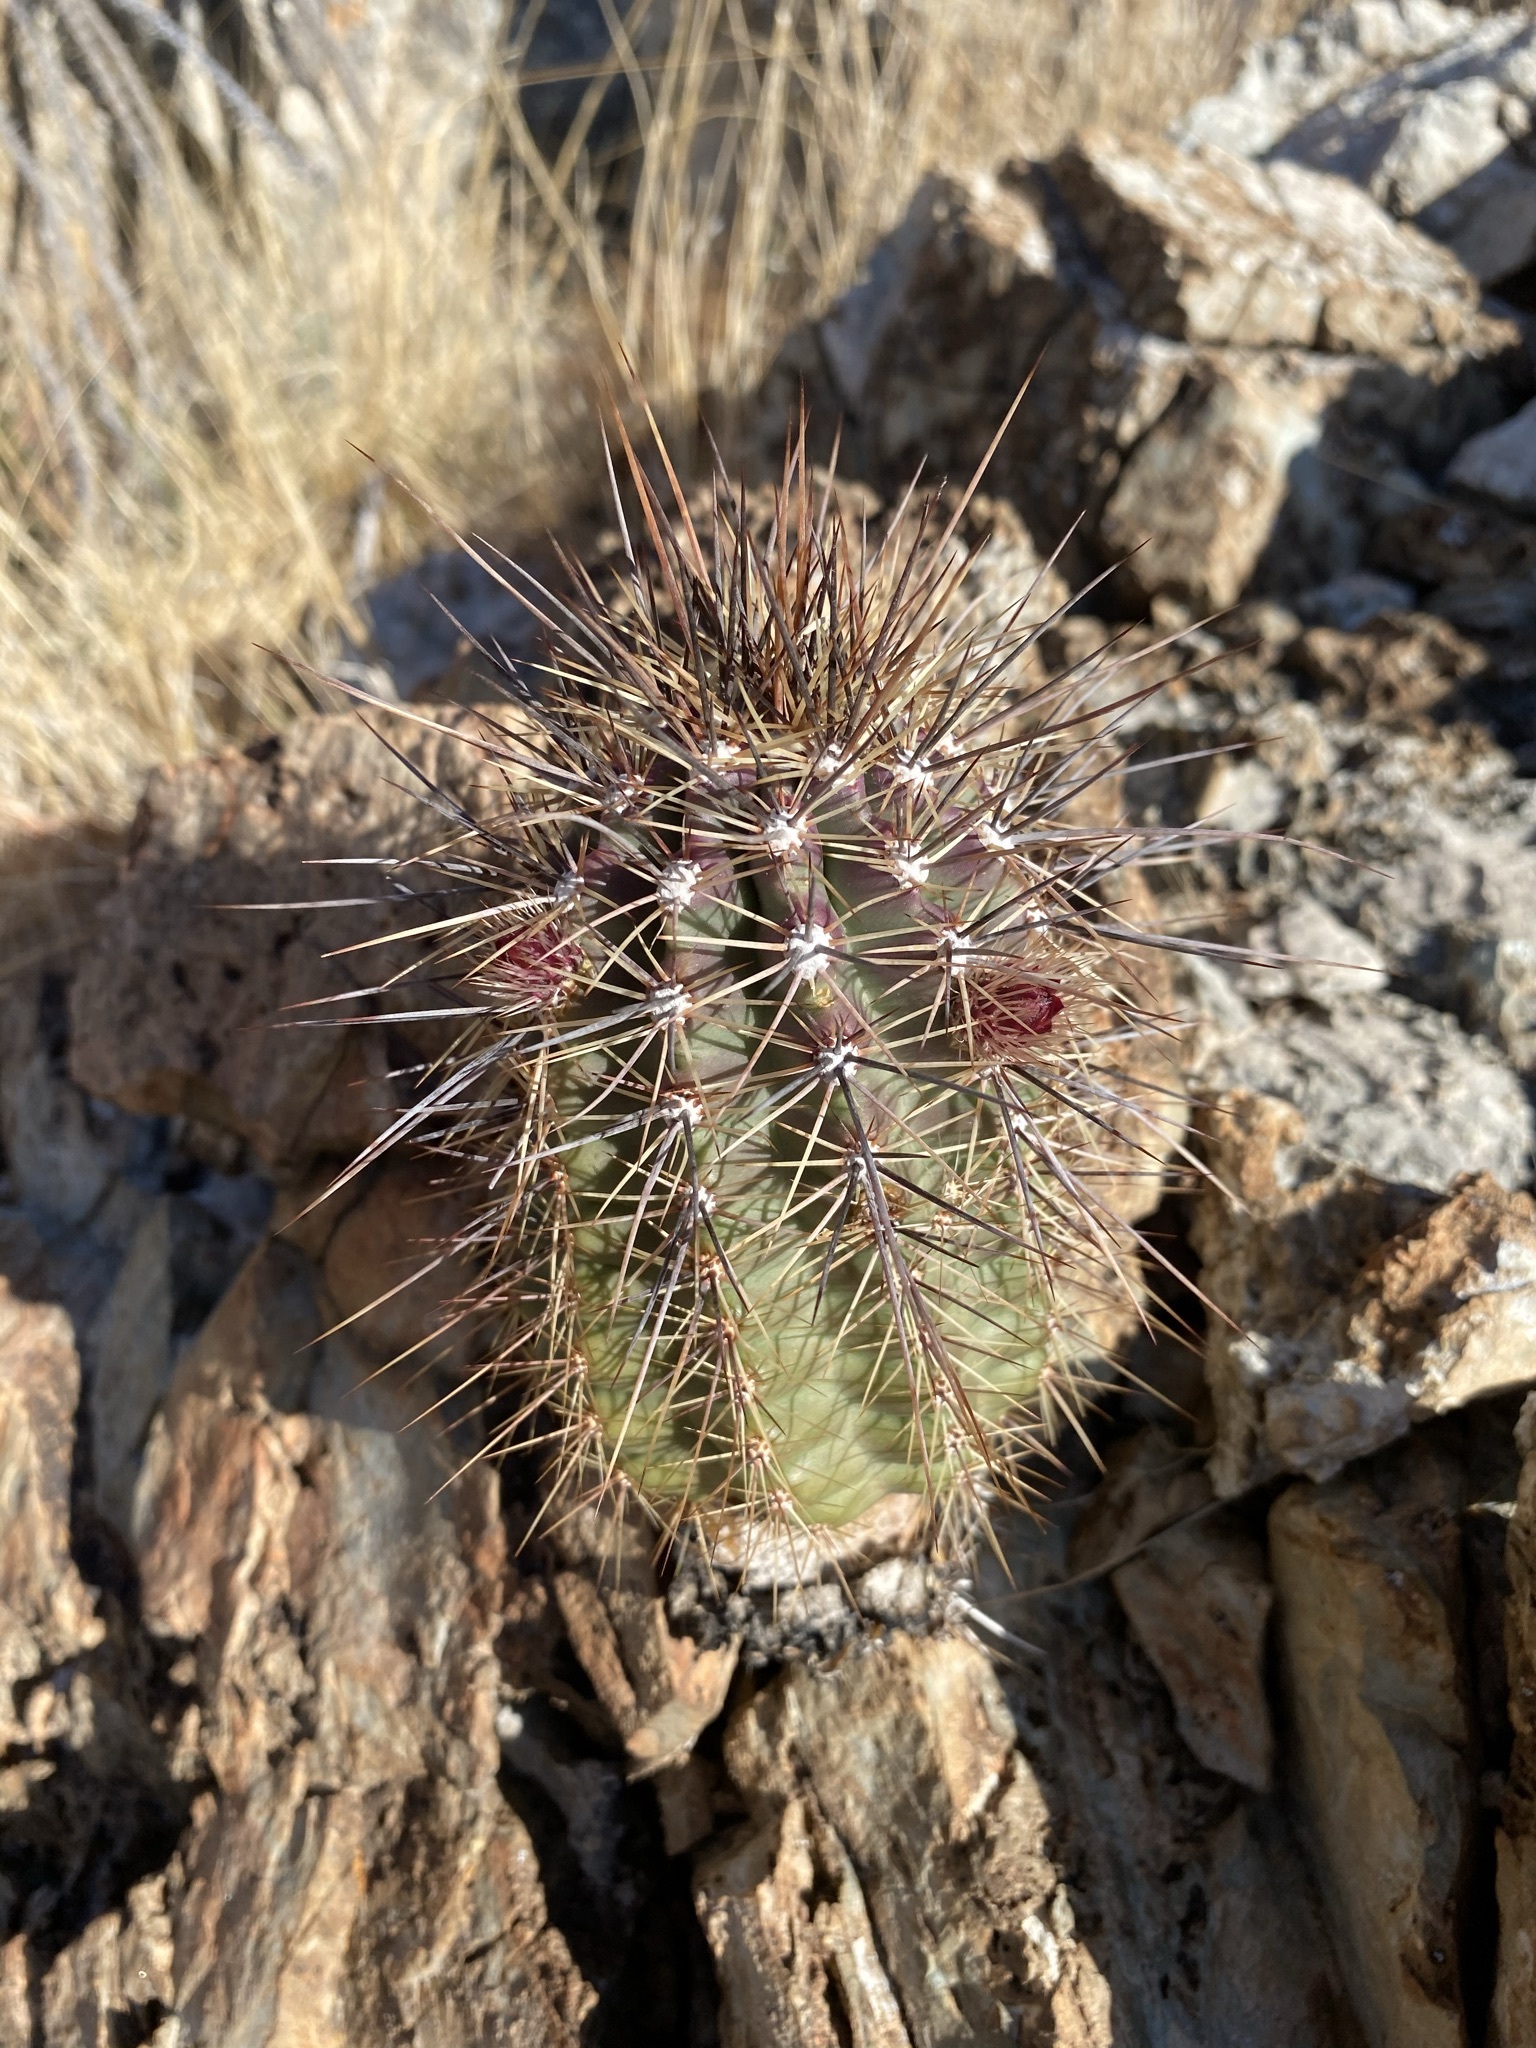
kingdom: Plantae
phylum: Tracheophyta
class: Magnoliopsida
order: Caryophyllales
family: Cactaceae
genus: Echinocereus
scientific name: Echinocereus arizonicus
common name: Arizona hedgehog cactus
